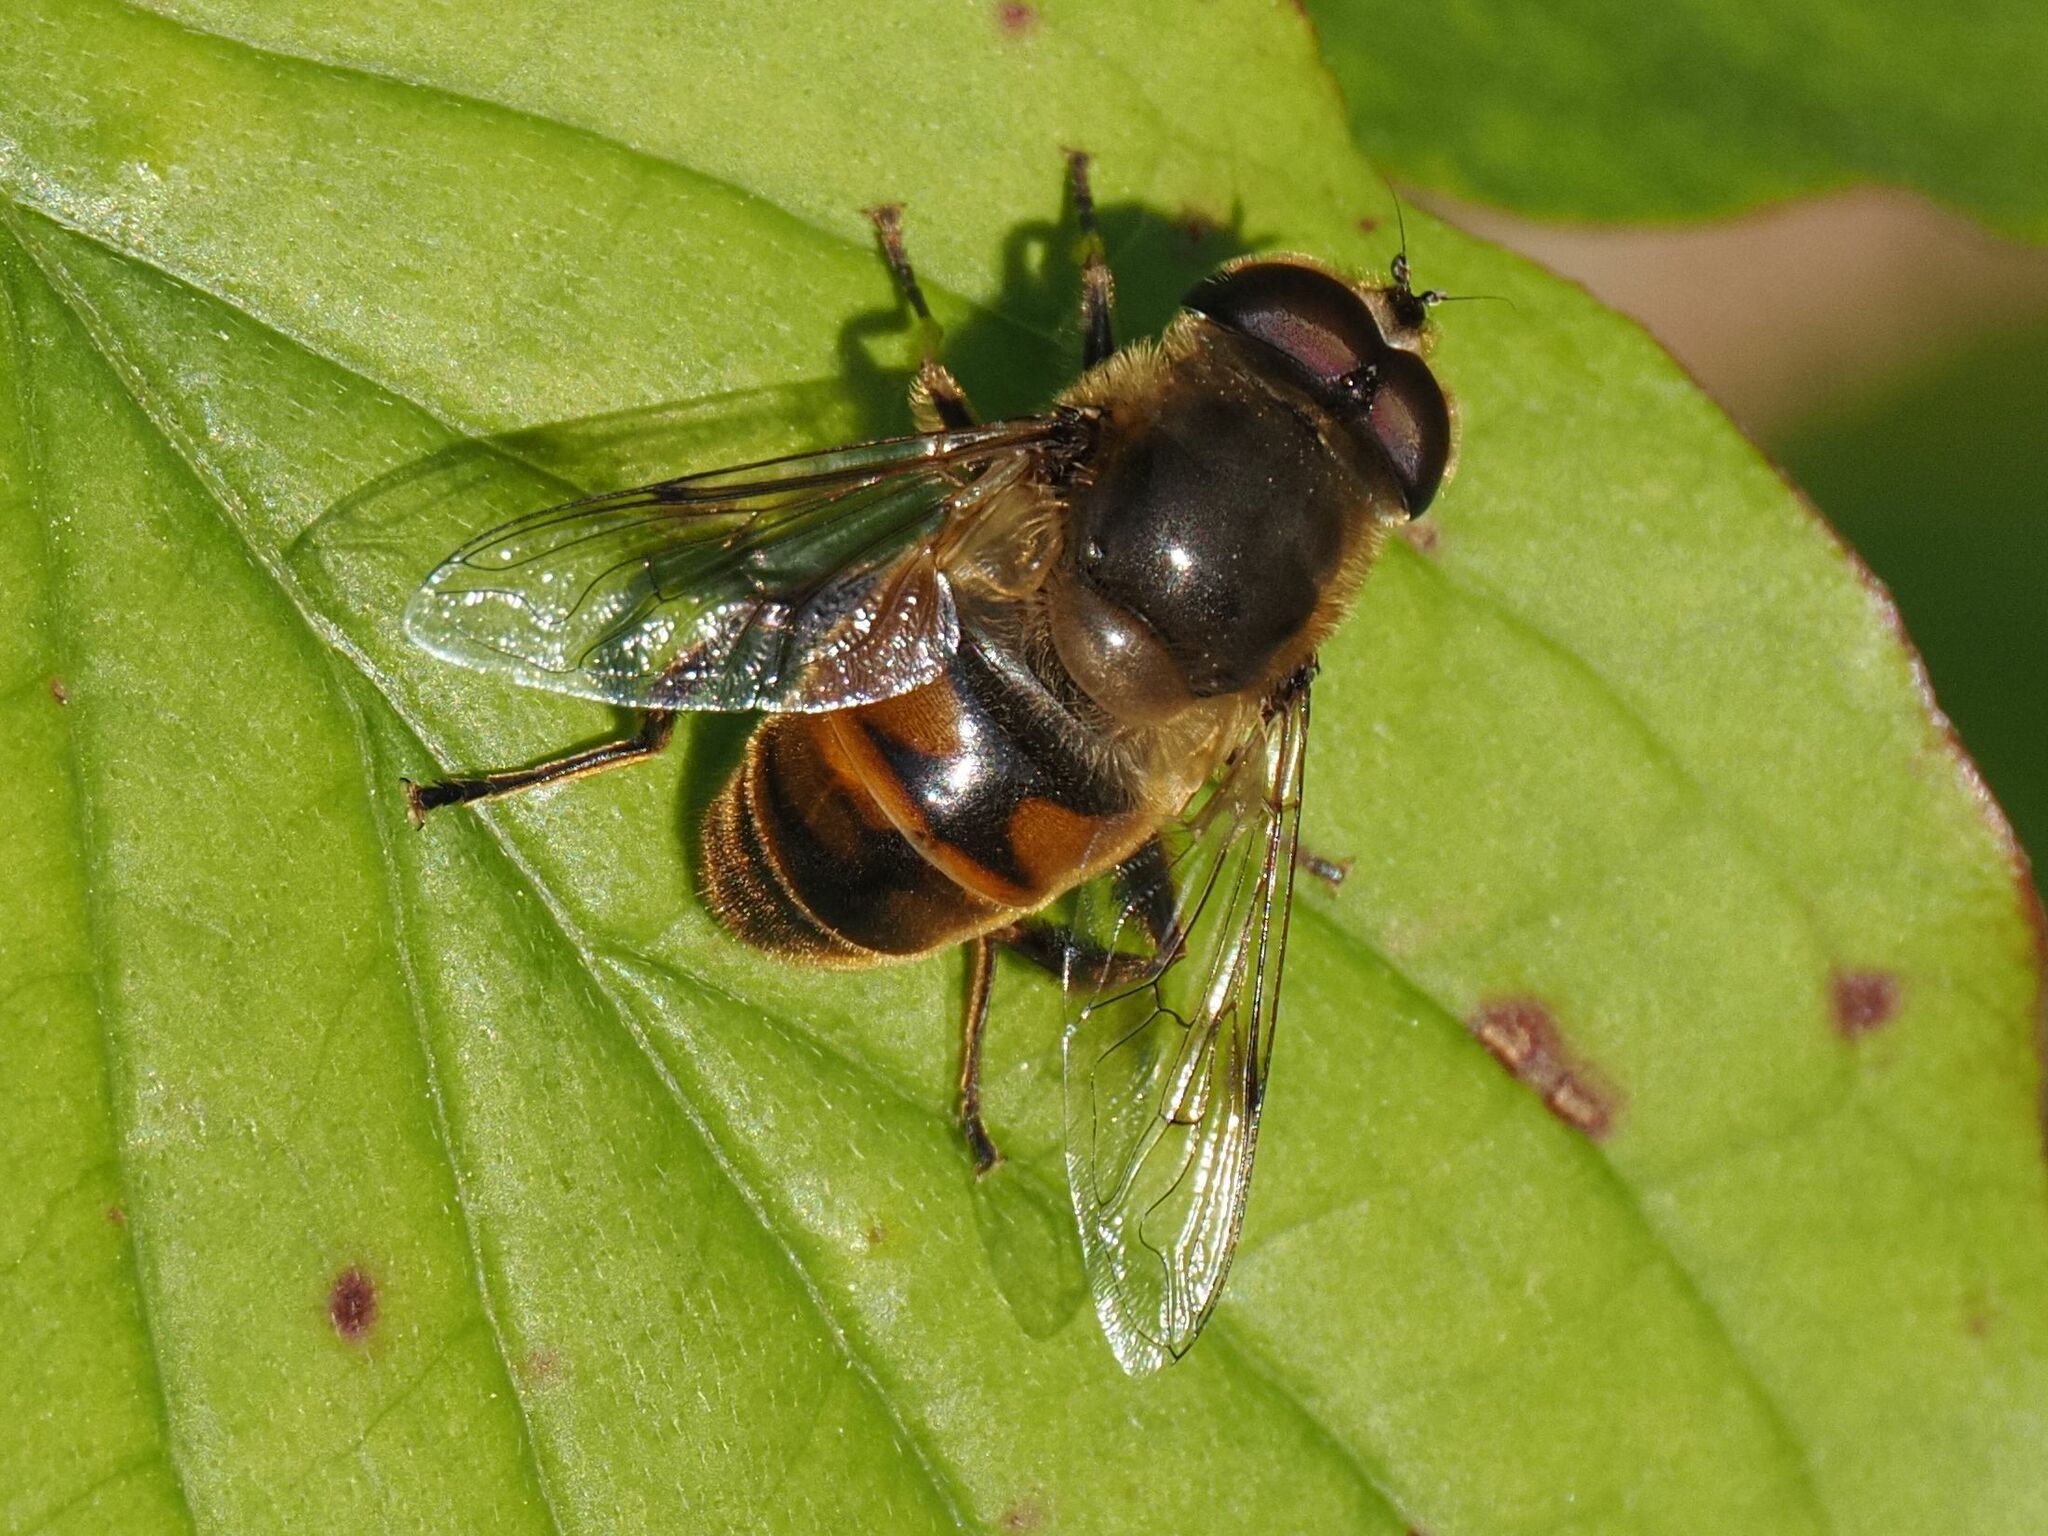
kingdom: Animalia
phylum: Arthropoda
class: Insecta
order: Diptera
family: Syrphidae
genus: Eristalis
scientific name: Eristalis tenax
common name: Drone fly
